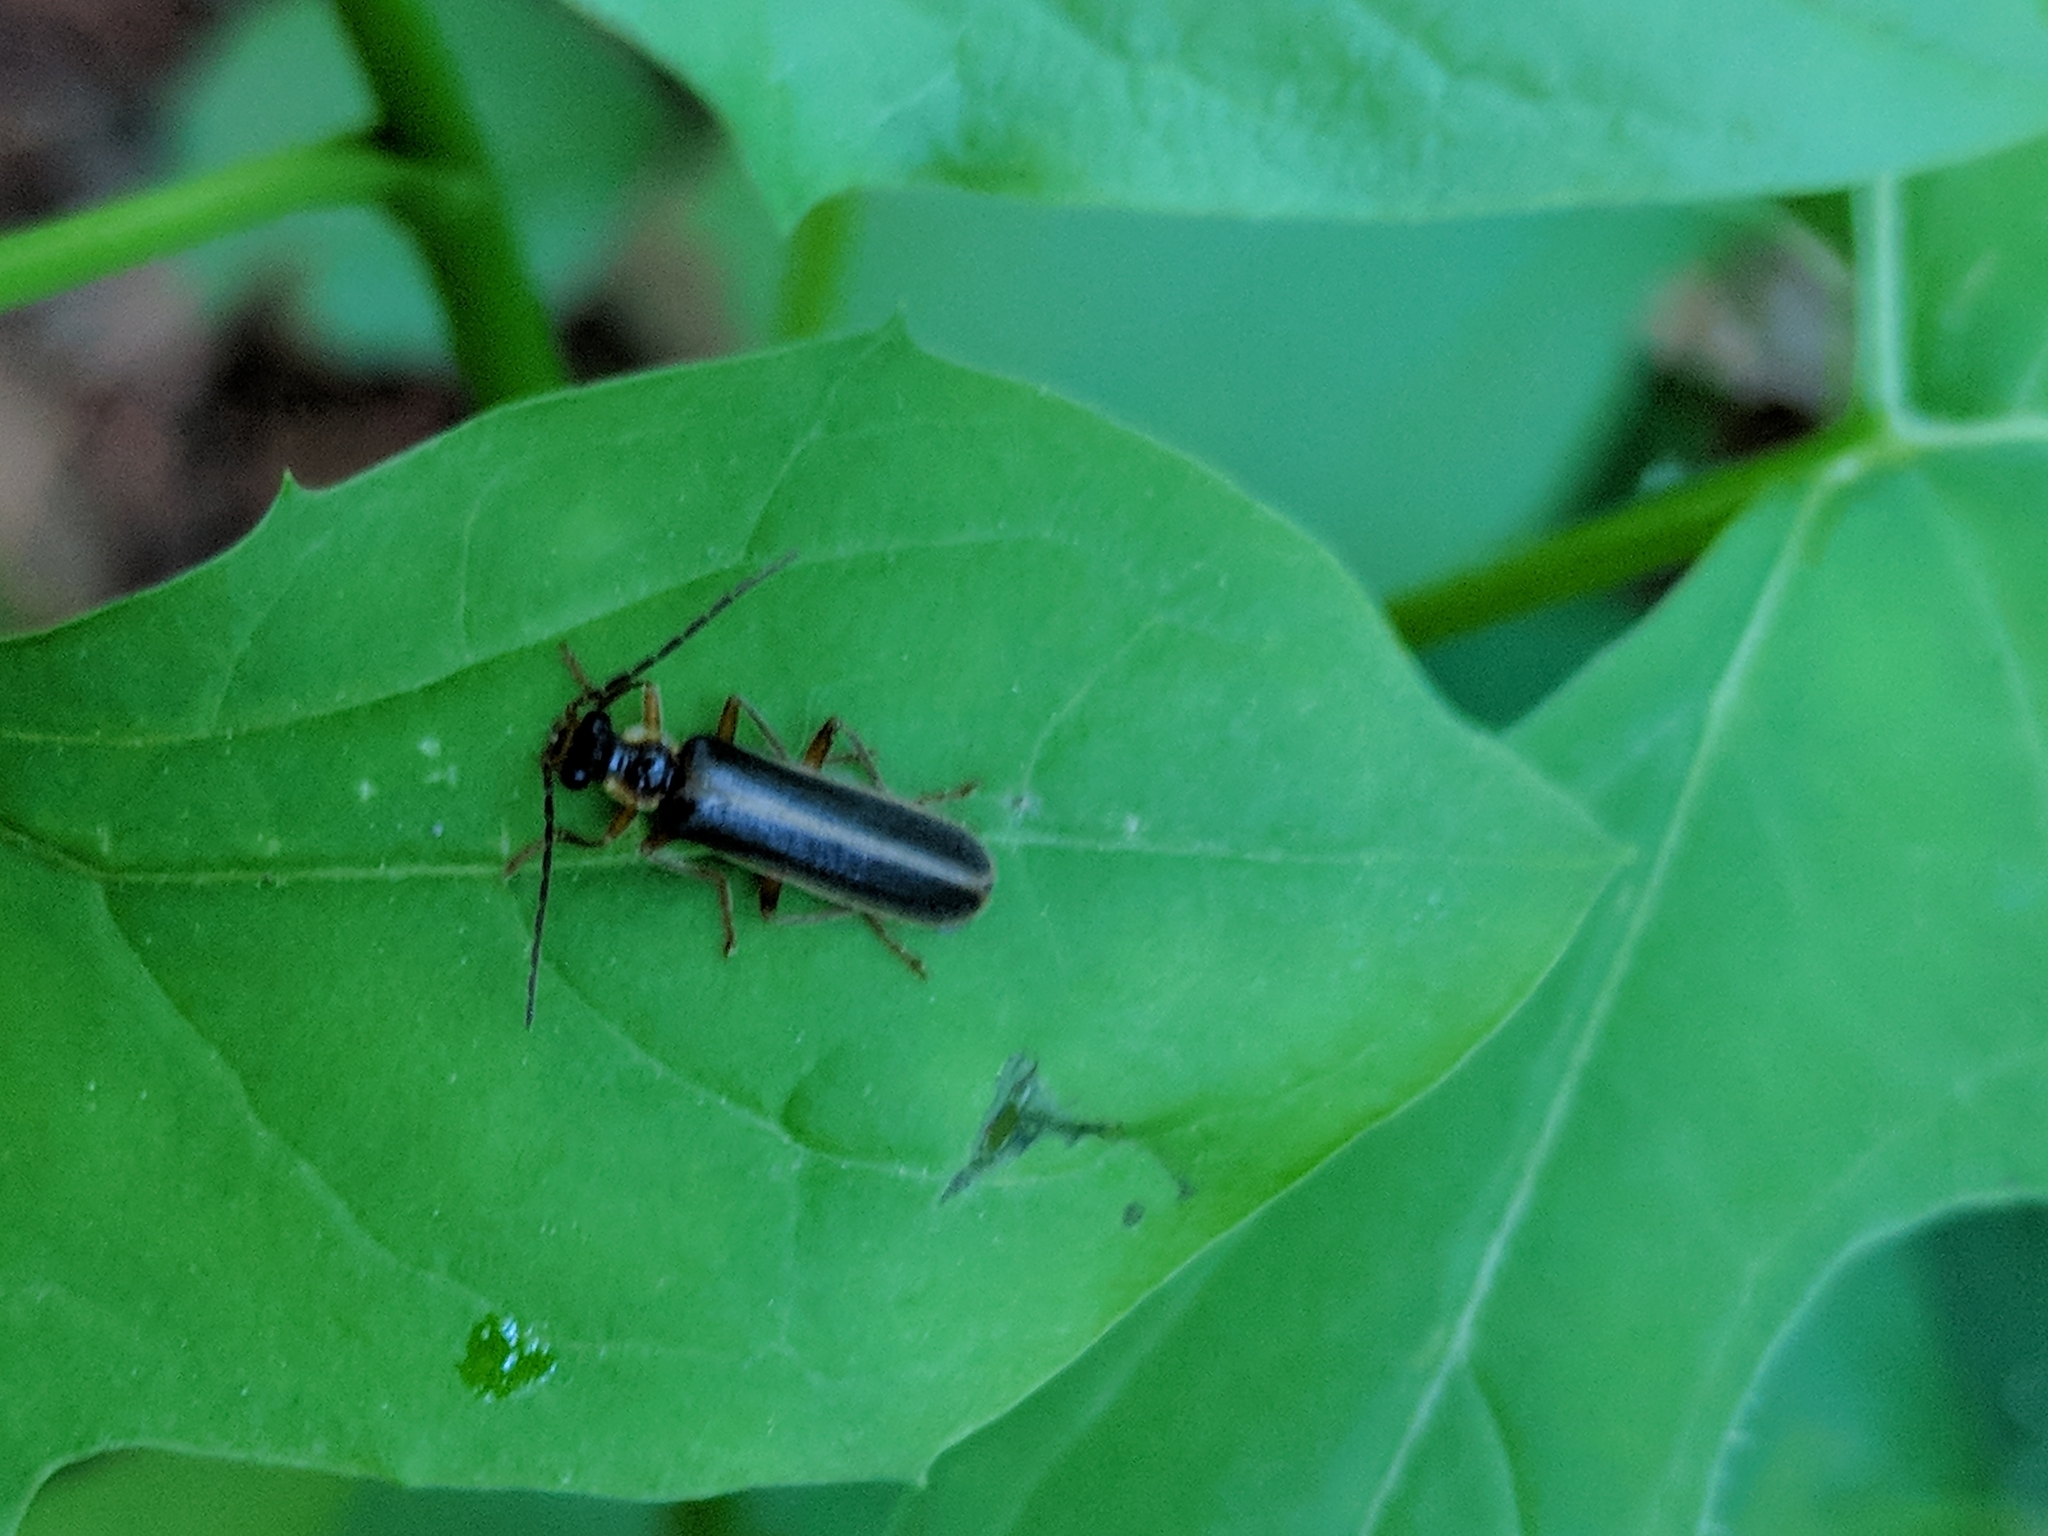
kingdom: Animalia
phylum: Arthropoda
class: Insecta
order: Coleoptera
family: Cantharidae
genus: Podabrus
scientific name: Podabrus modestus
